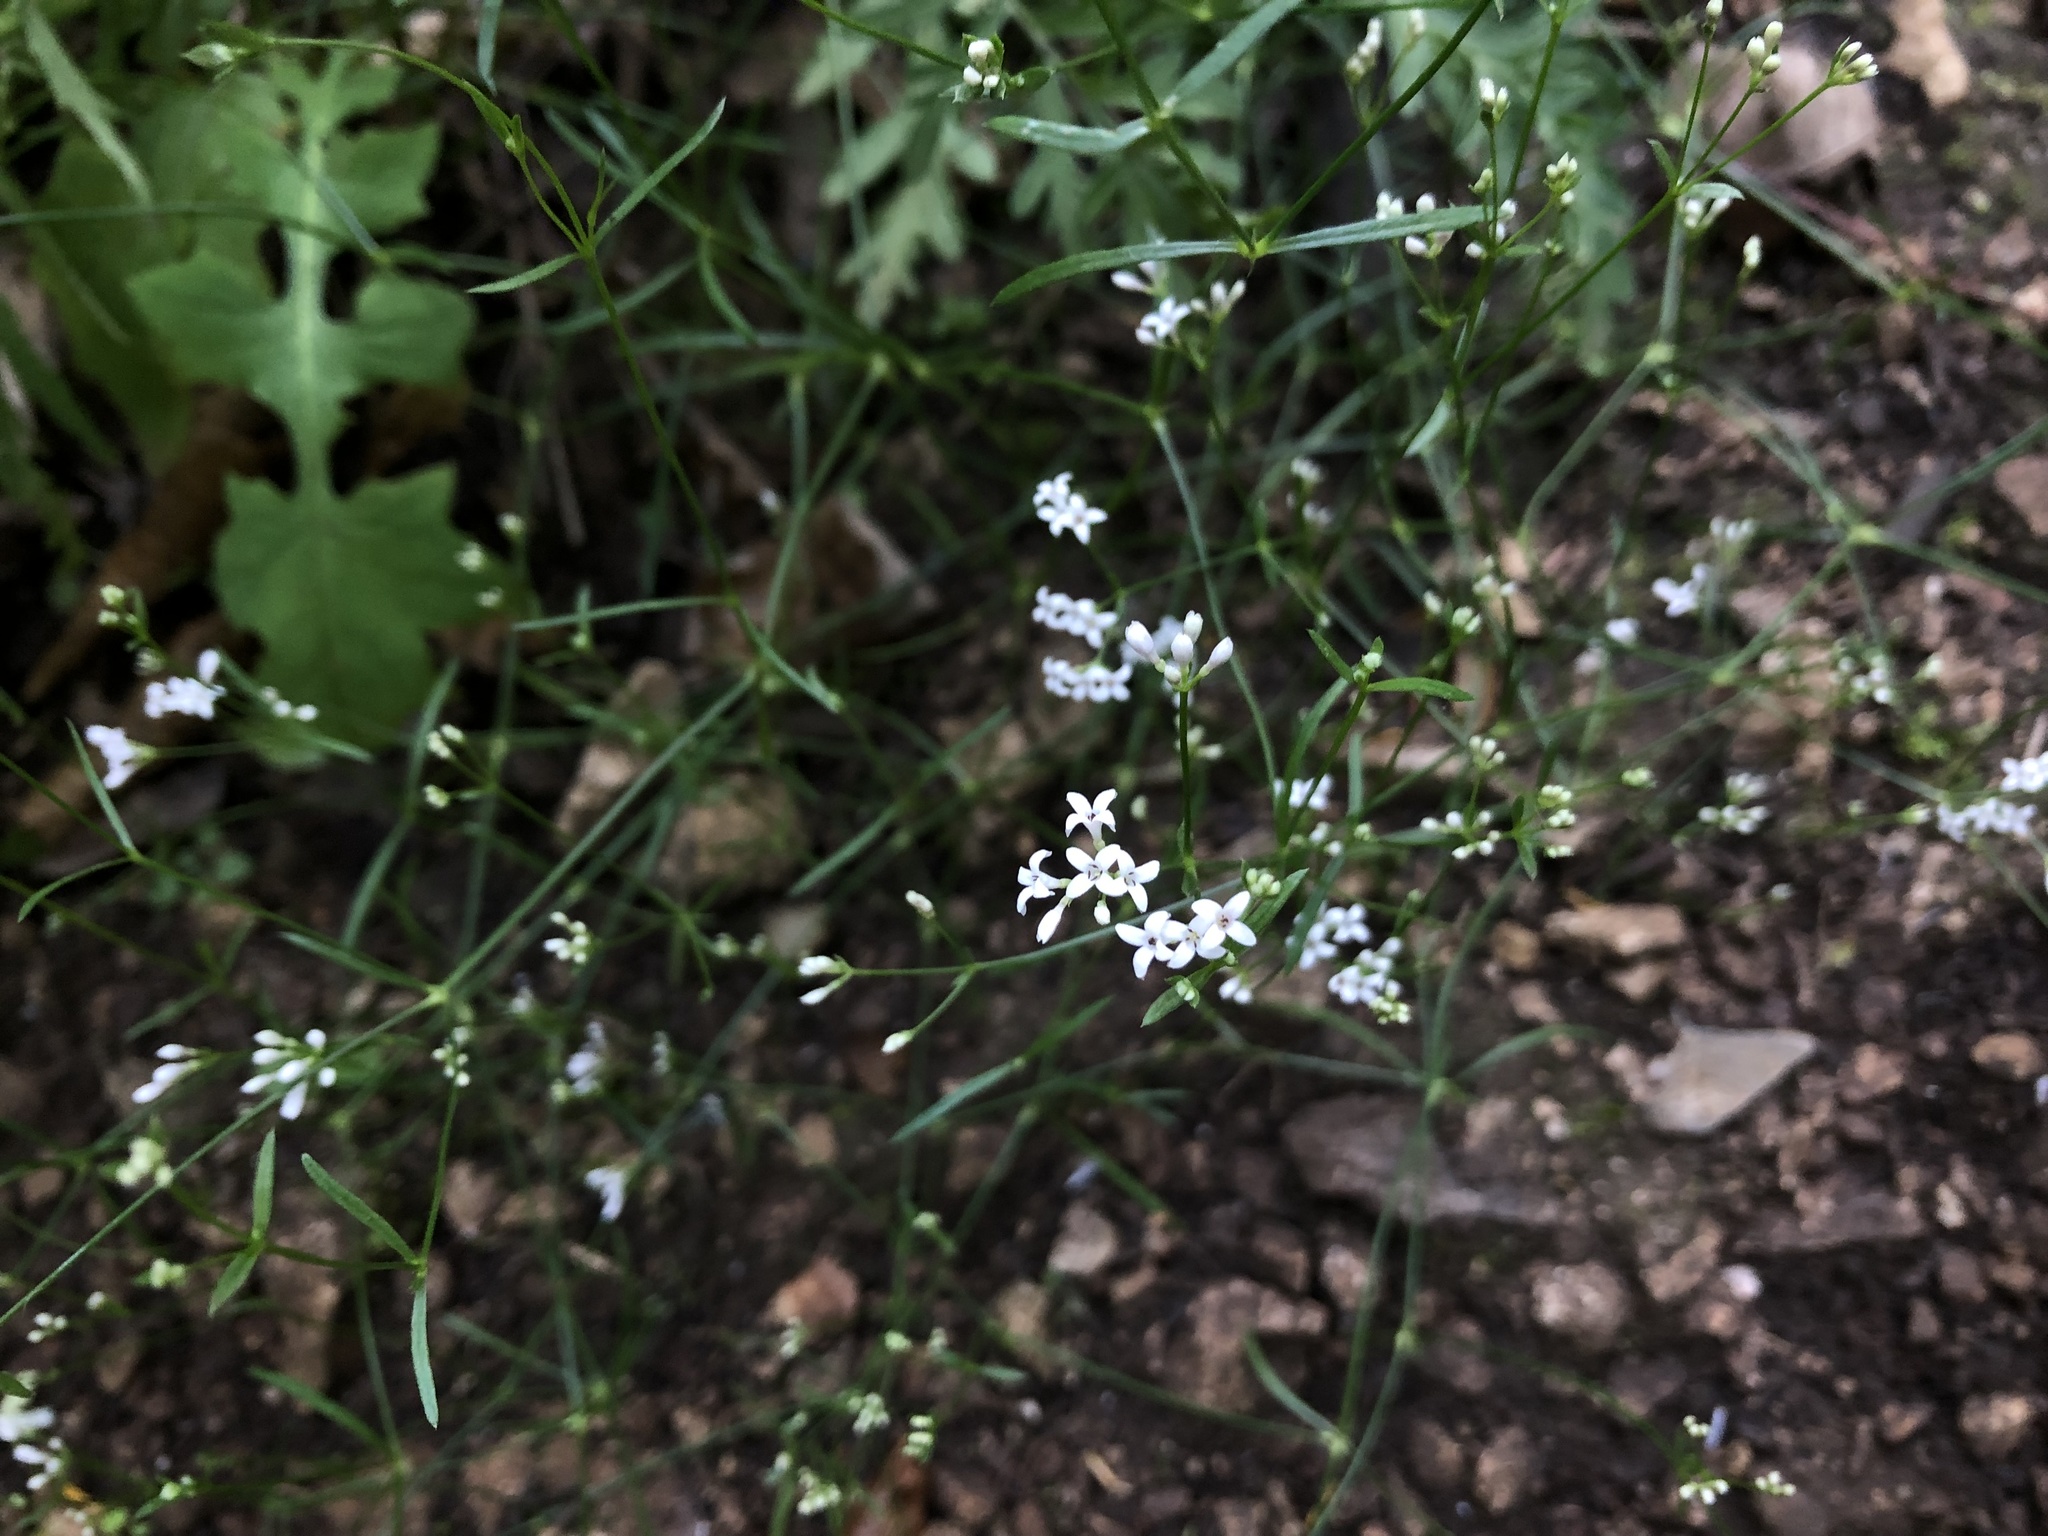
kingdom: Plantae
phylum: Tracheophyta
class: Magnoliopsida
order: Gentianales
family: Rubiaceae
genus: Cynanchica
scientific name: Cynanchica pyrenaica
